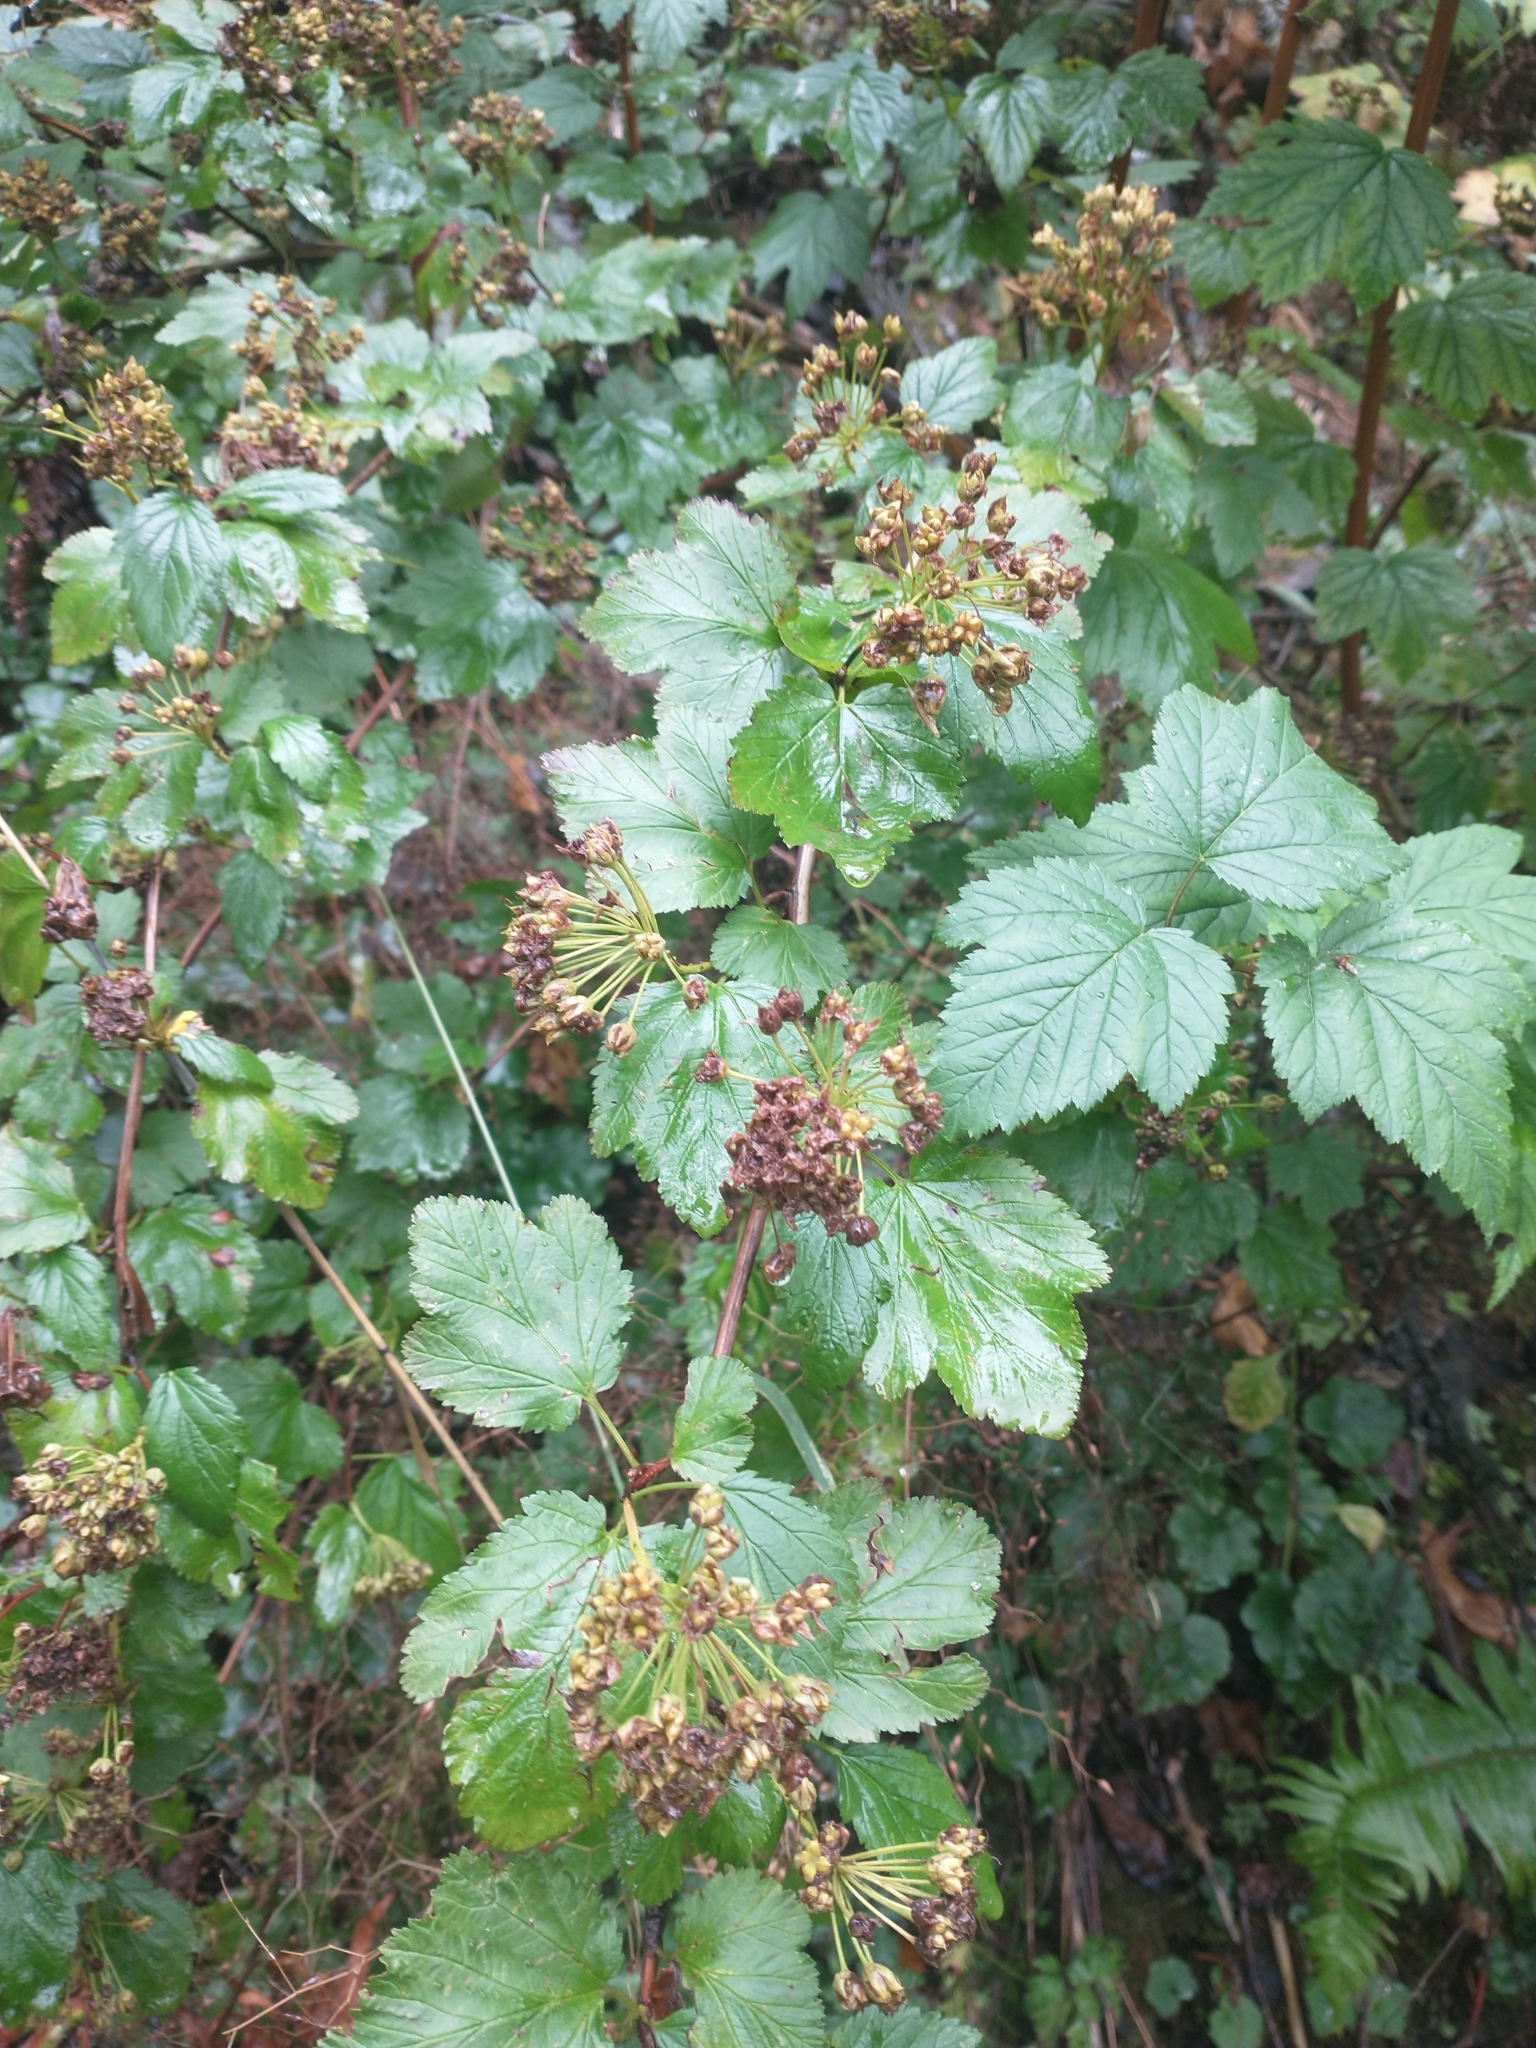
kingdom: Plantae
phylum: Tracheophyta
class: Magnoliopsida
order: Rosales
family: Rosaceae
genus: Physocarpus
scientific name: Physocarpus capitatus
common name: Pacific ninebark
